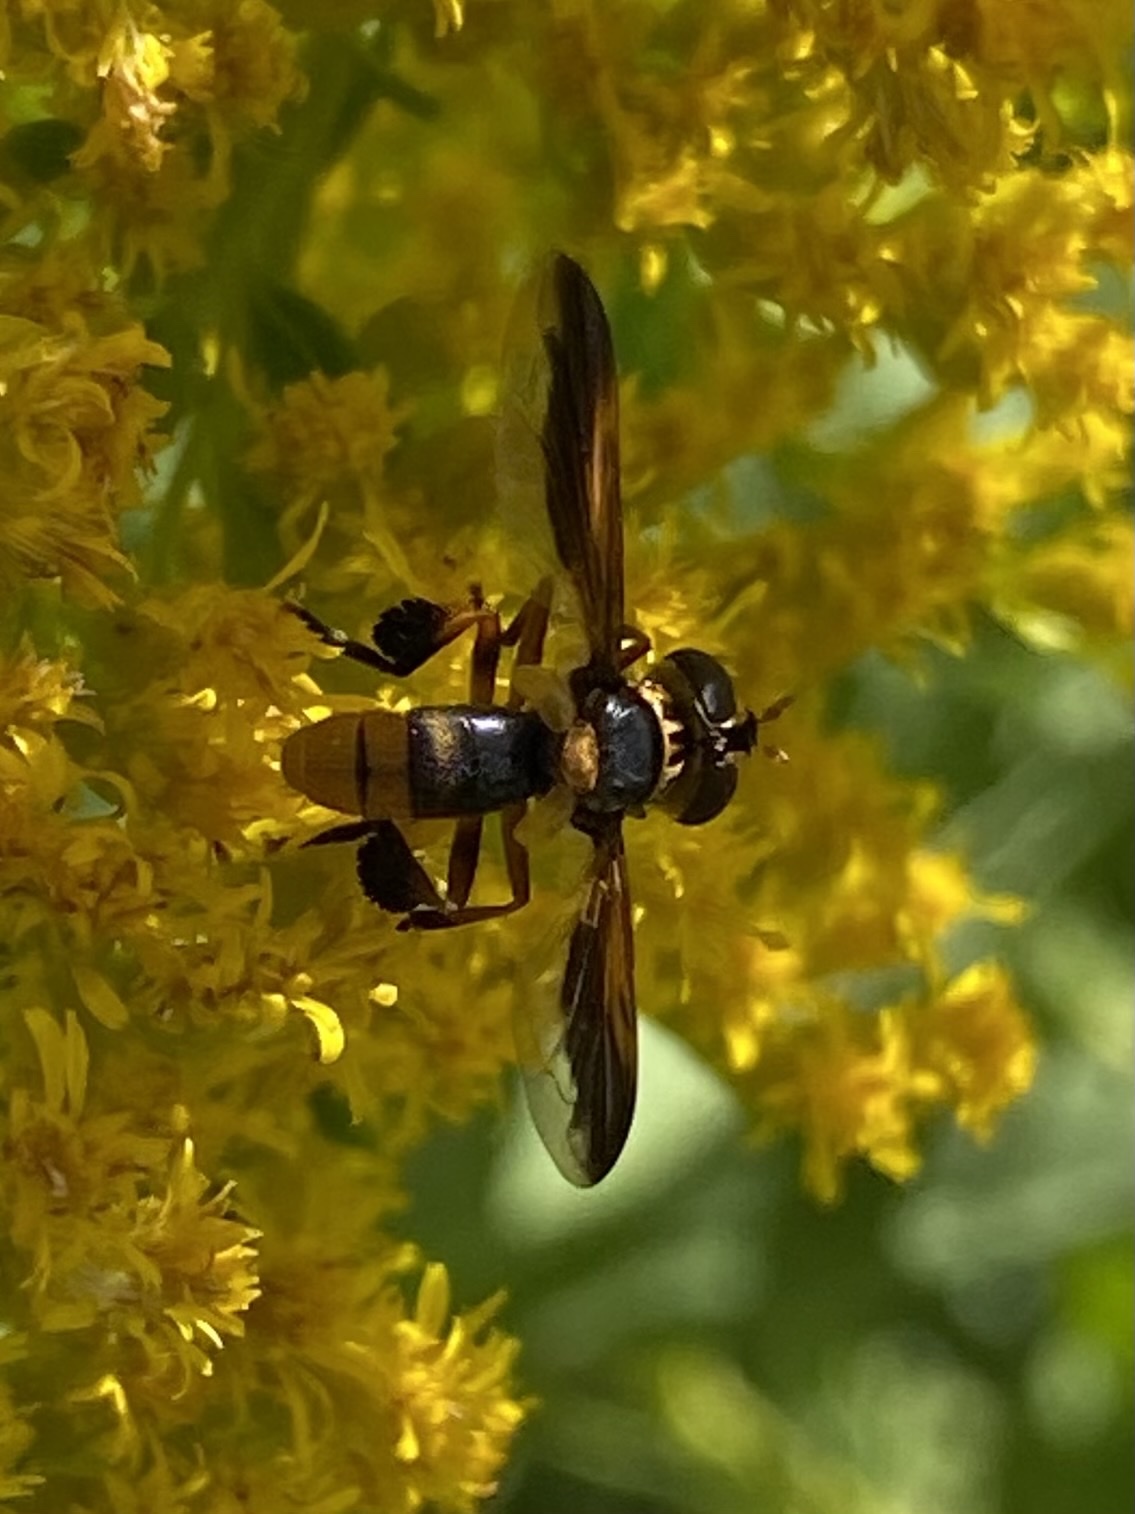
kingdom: Animalia
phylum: Arthropoda
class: Insecta
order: Diptera
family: Tachinidae
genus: Trichopoda
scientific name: Trichopoda indivisa
